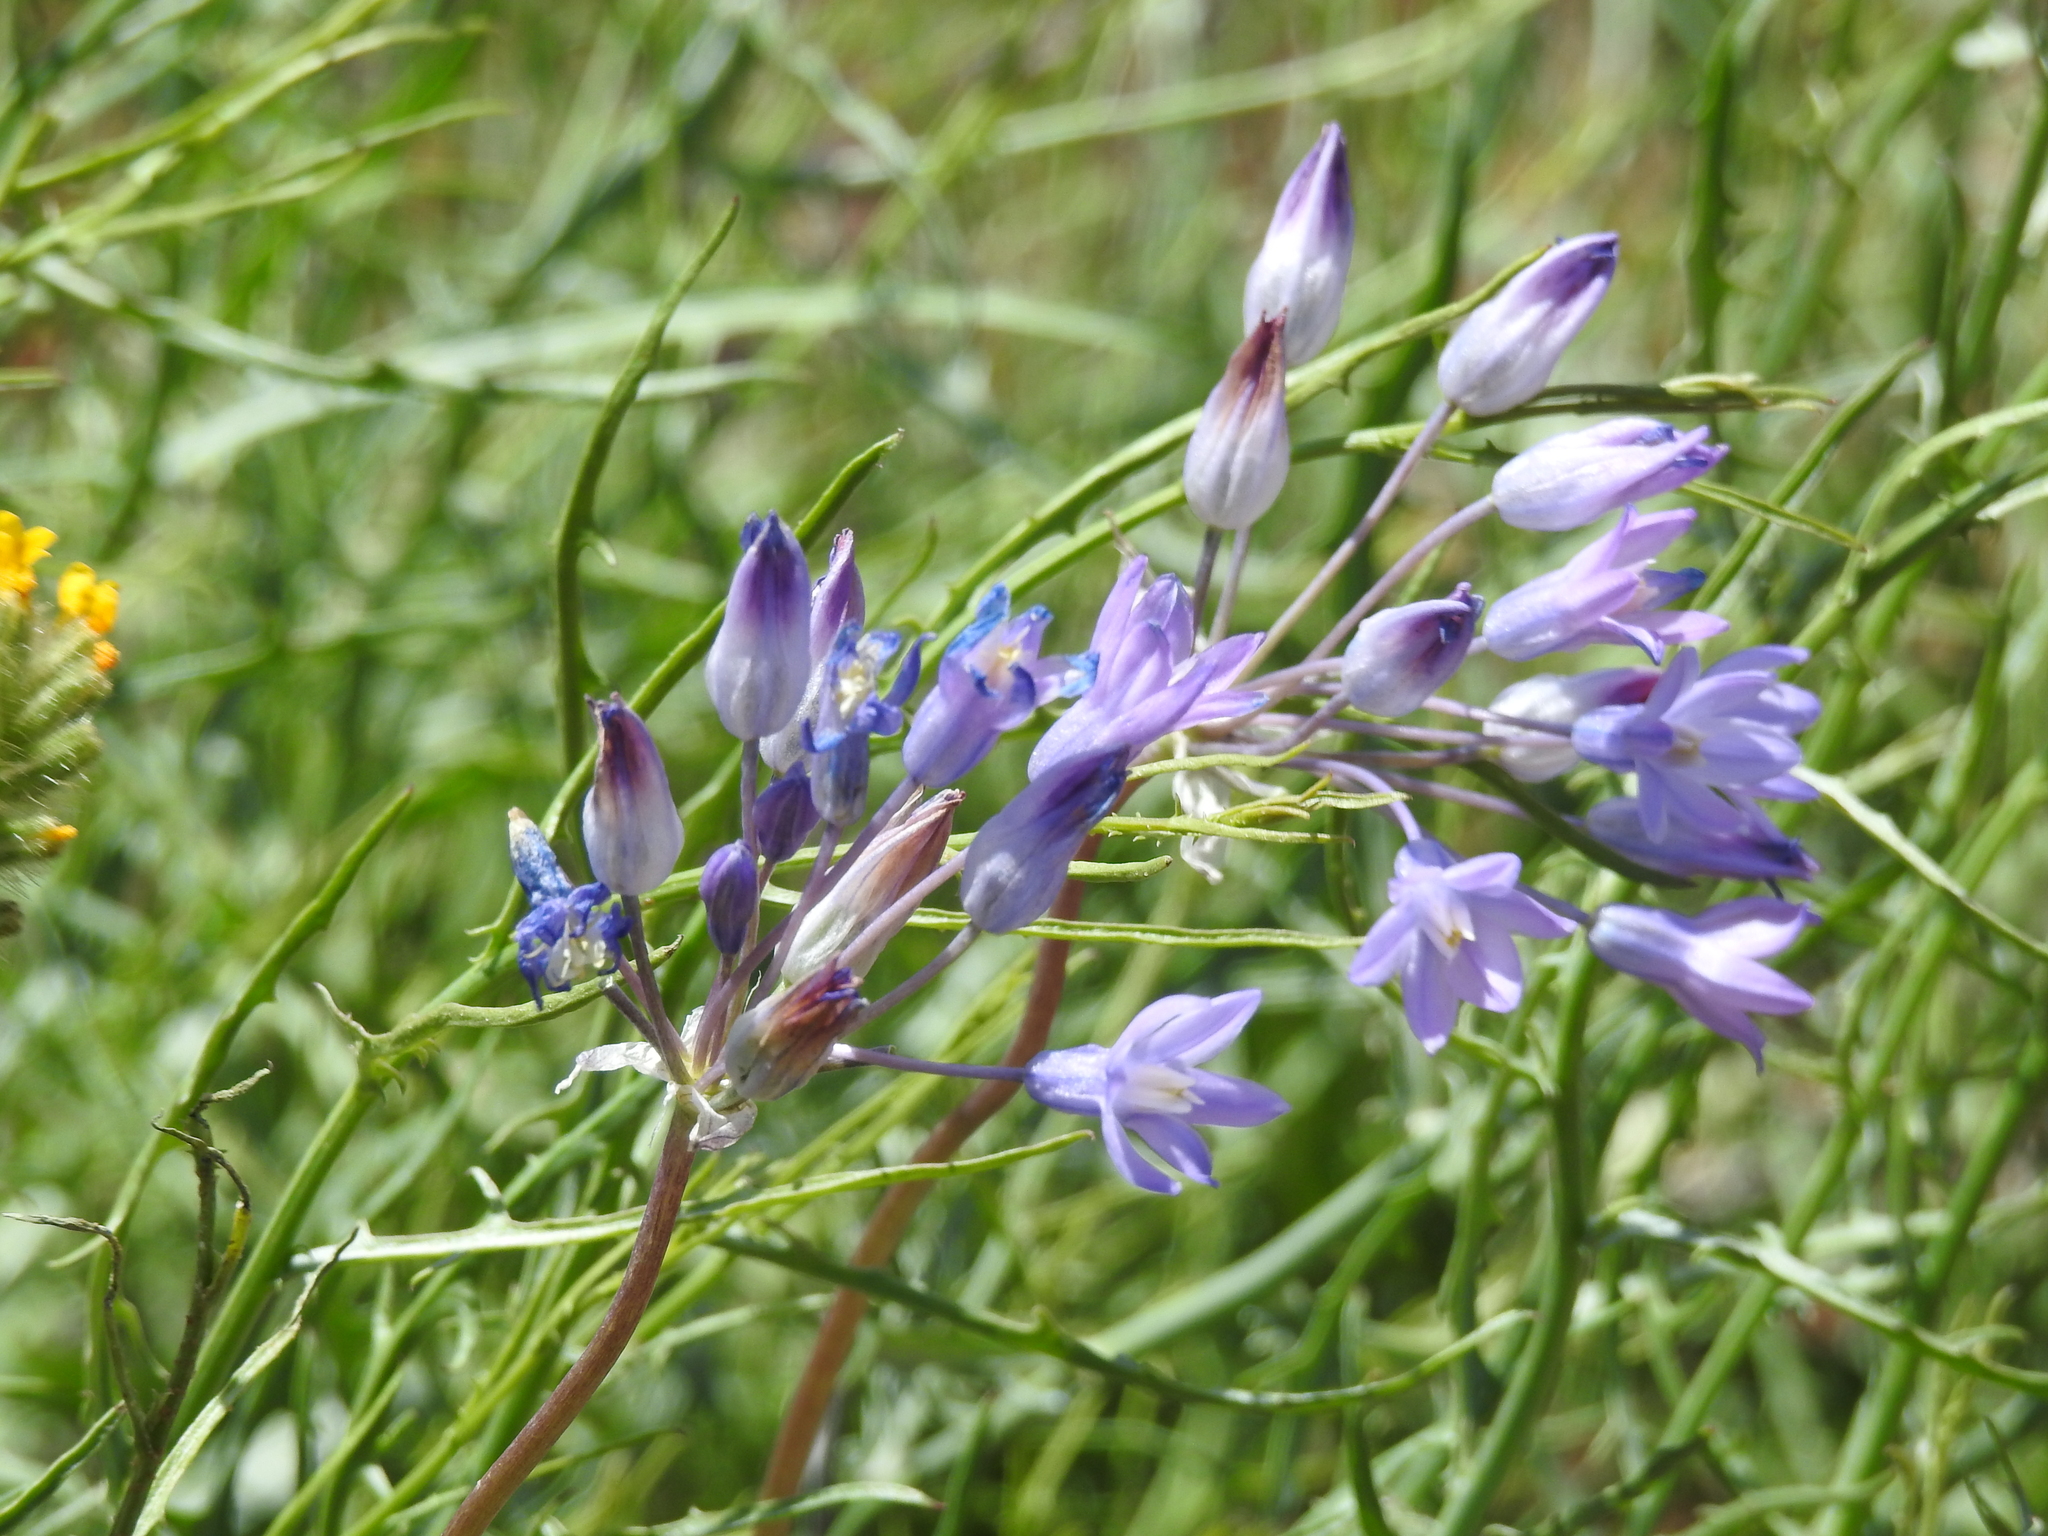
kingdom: Plantae
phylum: Tracheophyta
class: Liliopsida
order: Asparagales
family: Asparagaceae
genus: Dipterostemon
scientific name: Dipterostemon capitatus
